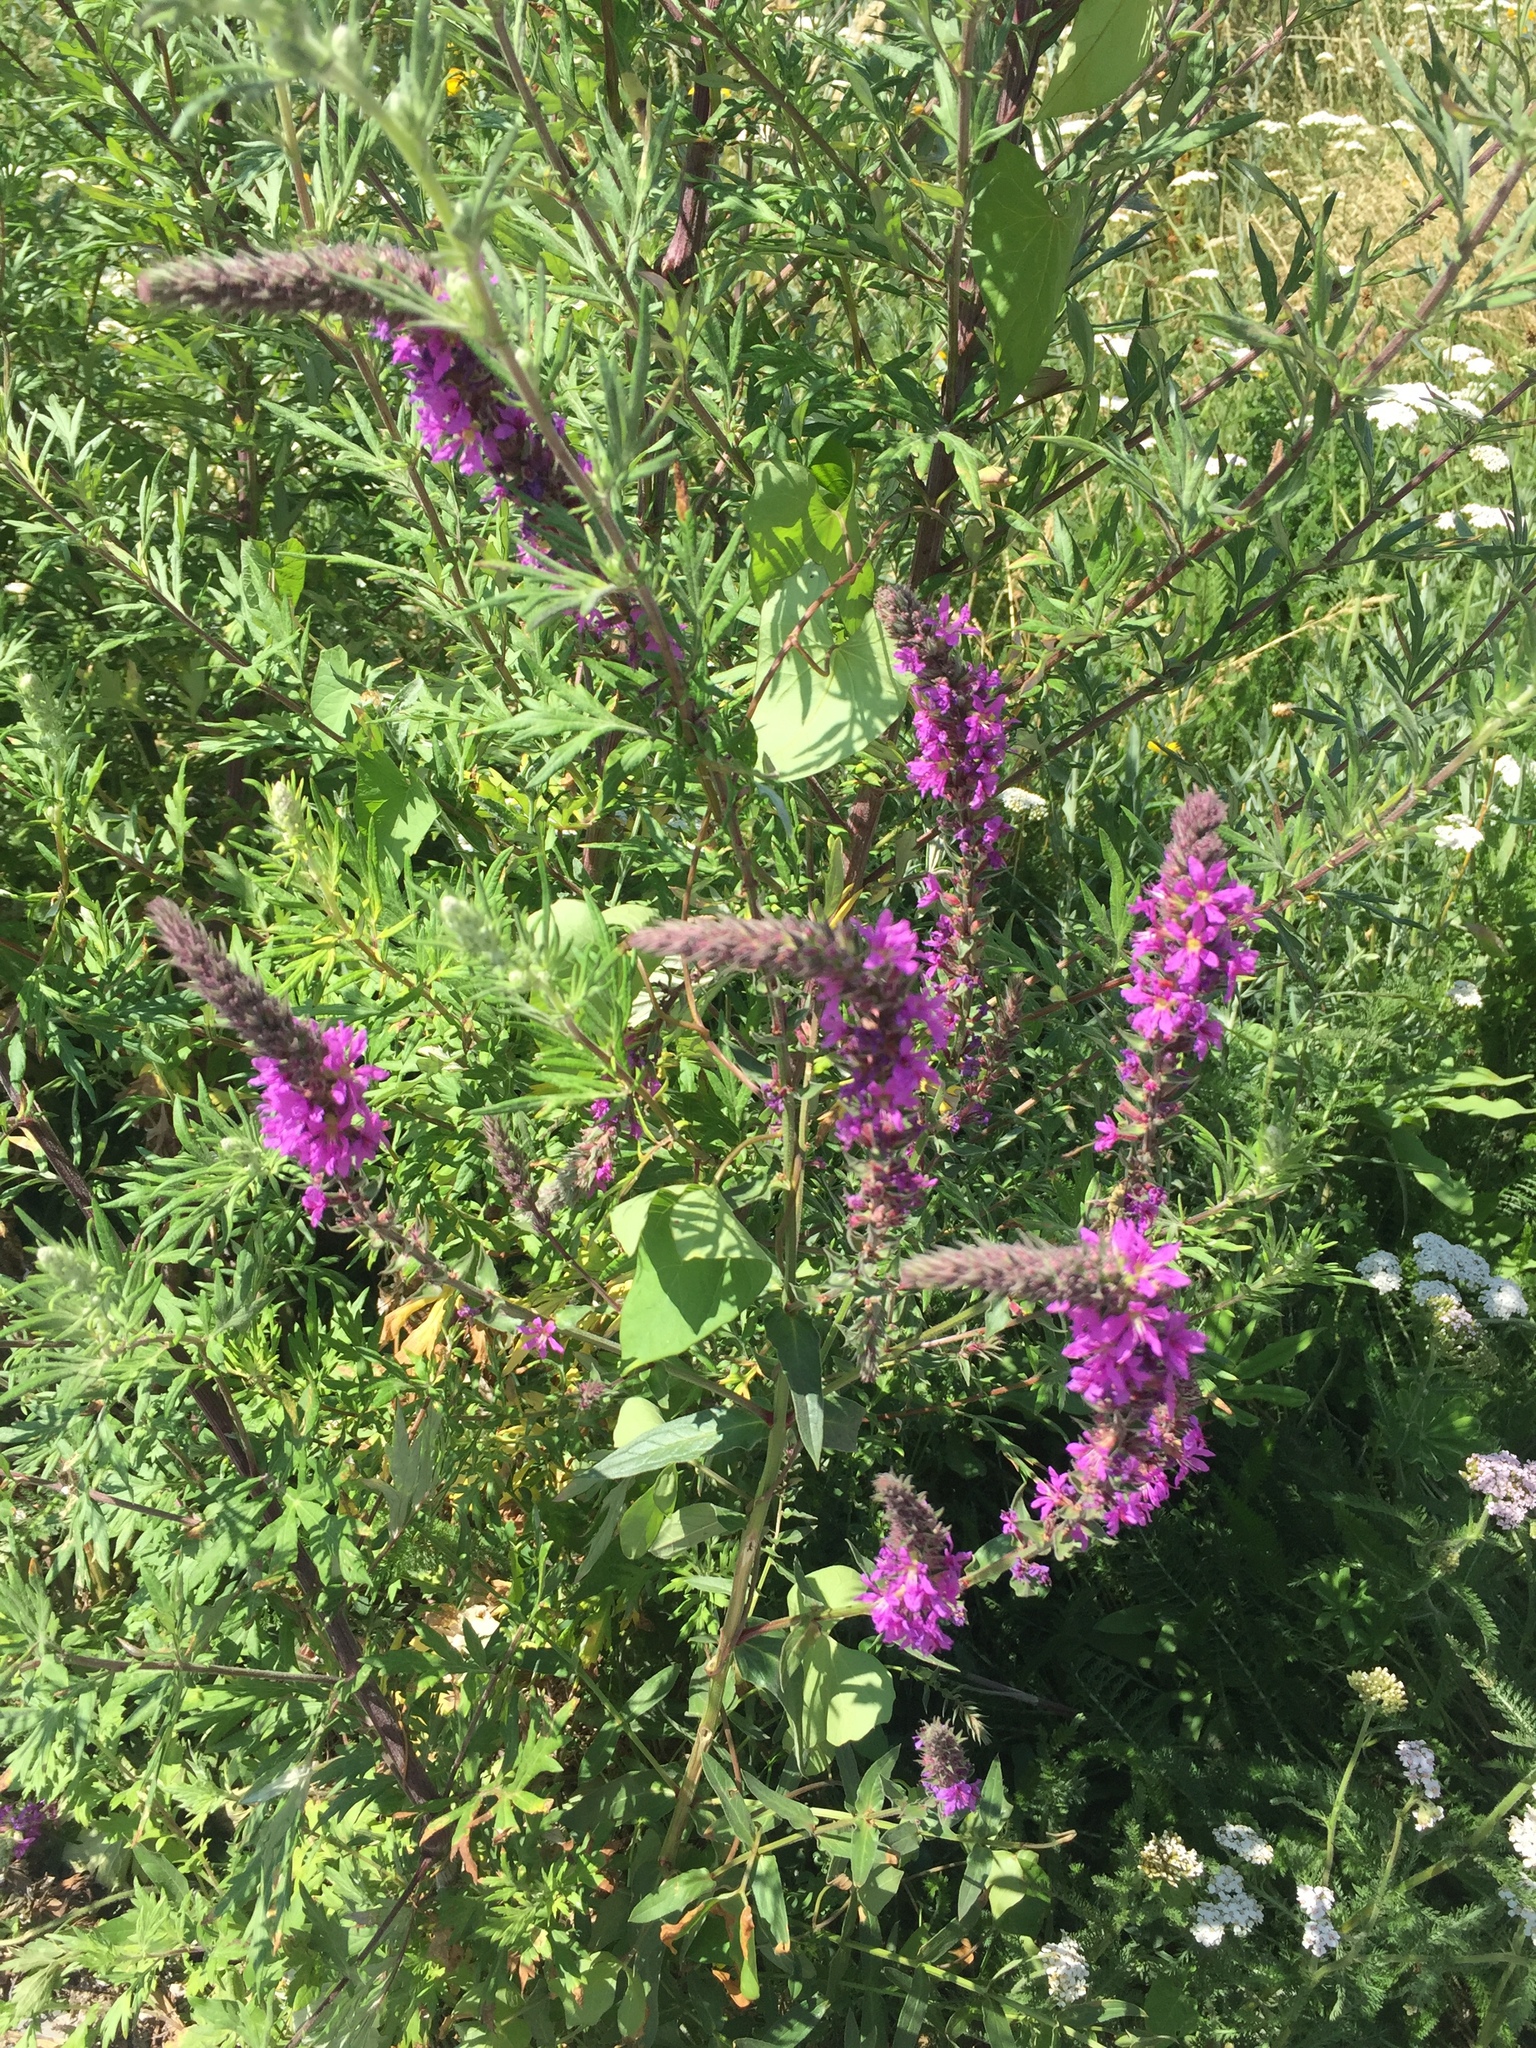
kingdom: Plantae
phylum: Tracheophyta
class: Magnoliopsida
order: Myrtales
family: Lythraceae
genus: Lythrum
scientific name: Lythrum salicaria
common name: Purple loosestrife
